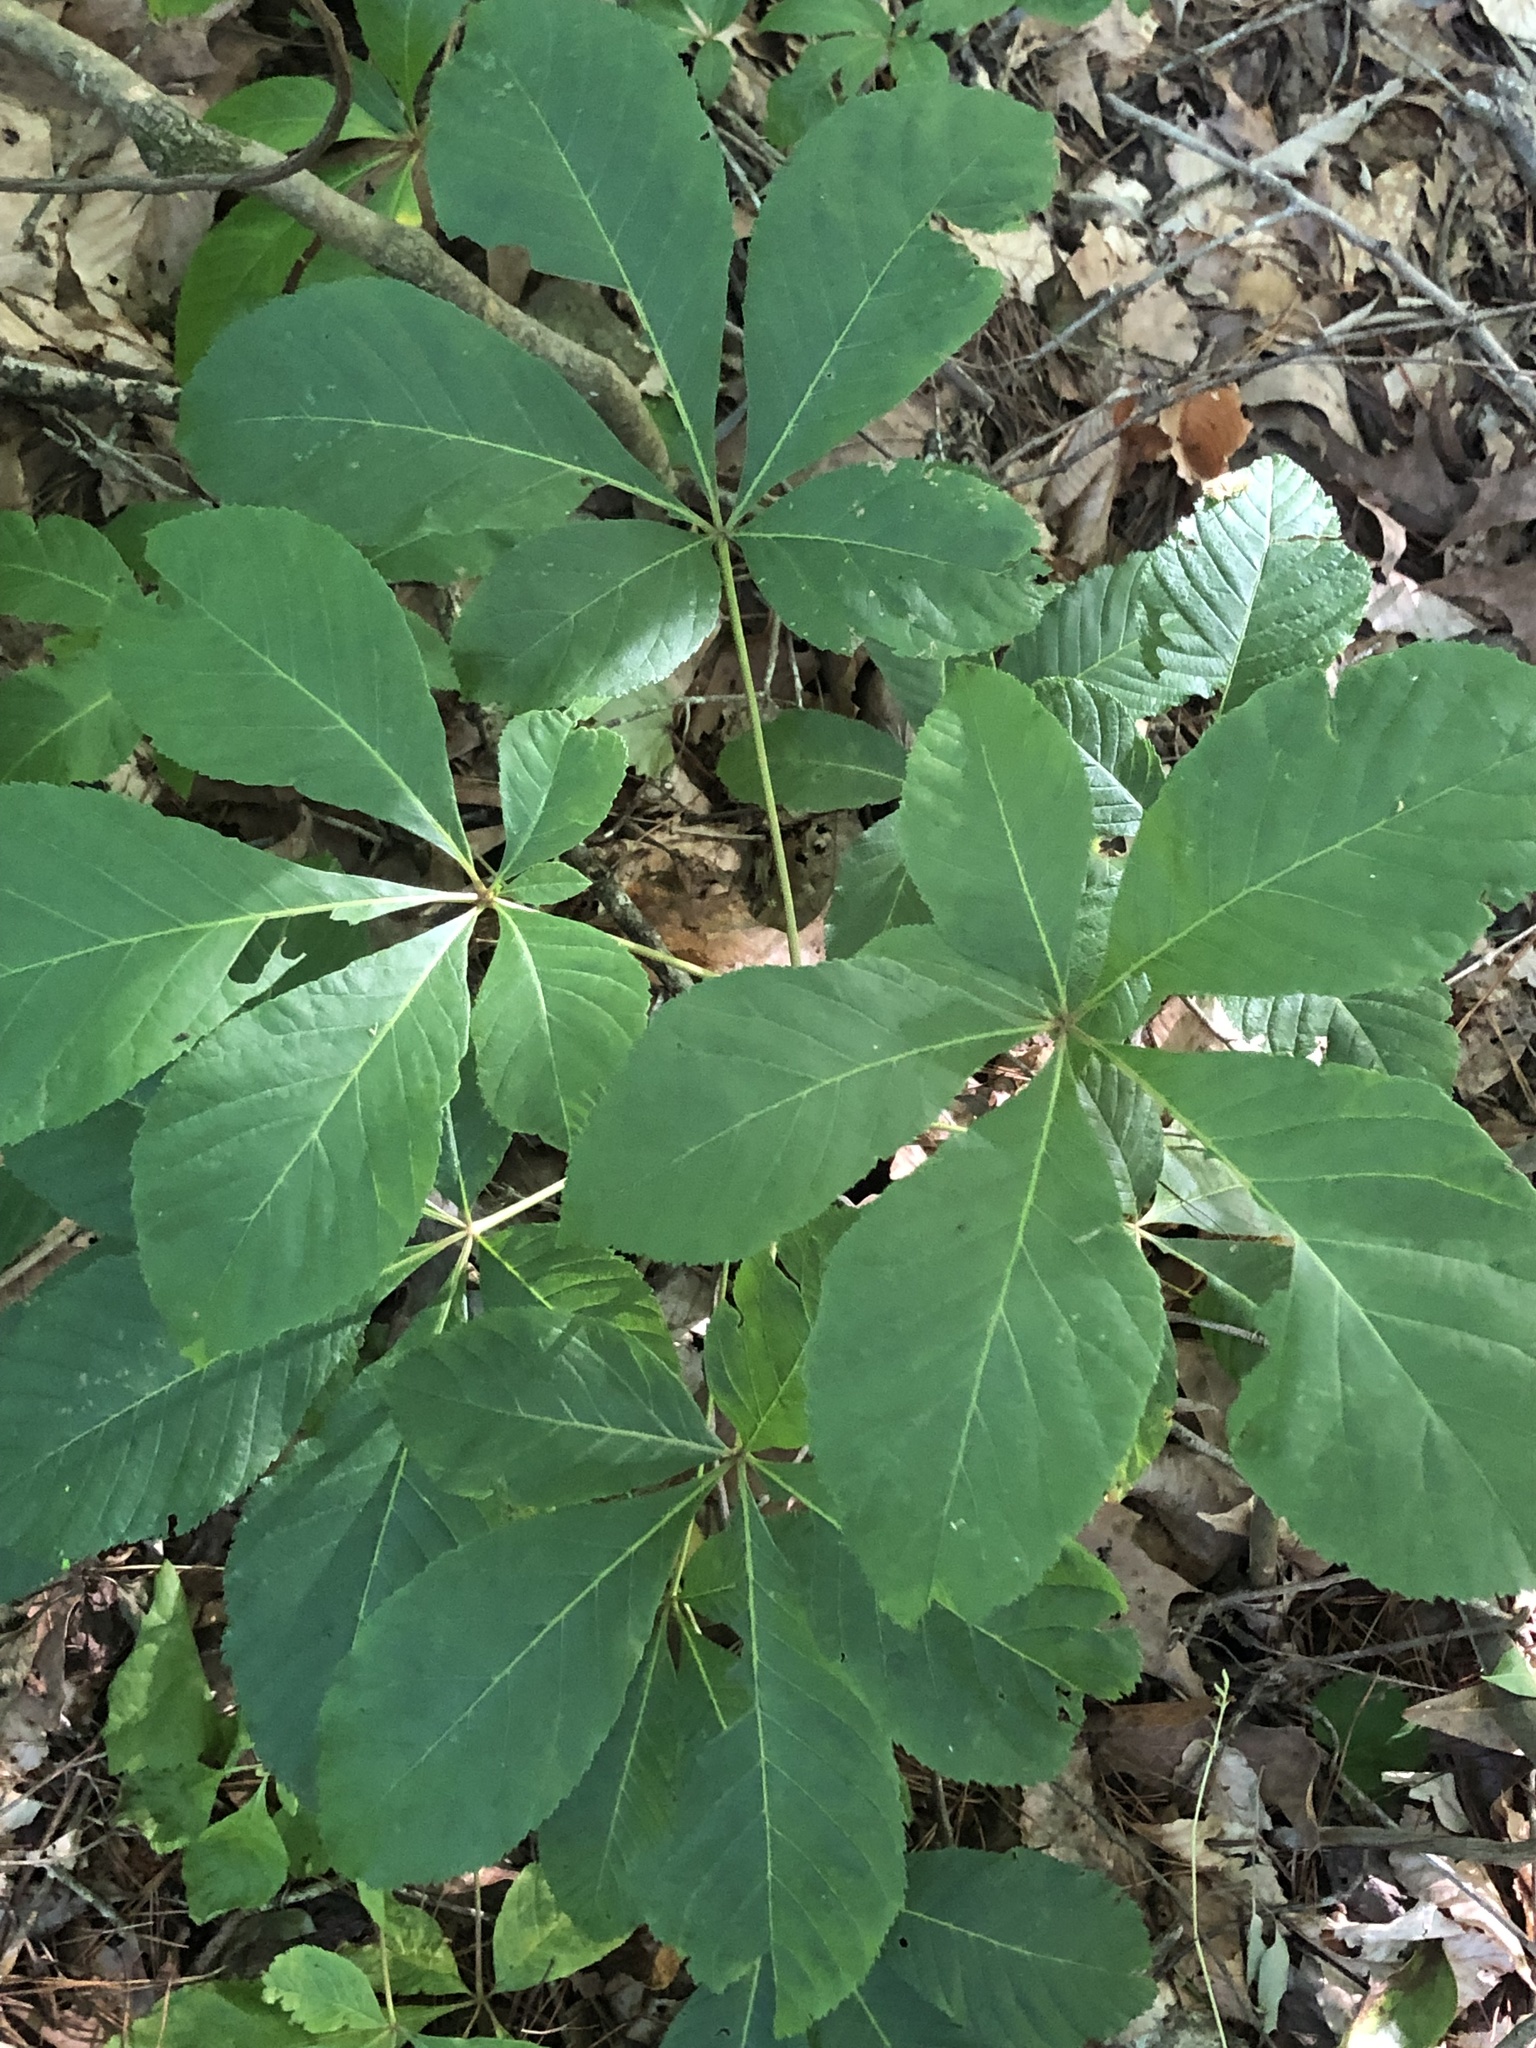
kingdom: Plantae
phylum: Tracheophyta
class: Magnoliopsida
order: Sapindales
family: Sapindaceae
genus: Aesculus
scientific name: Aesculus pavia
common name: Red buckeye
